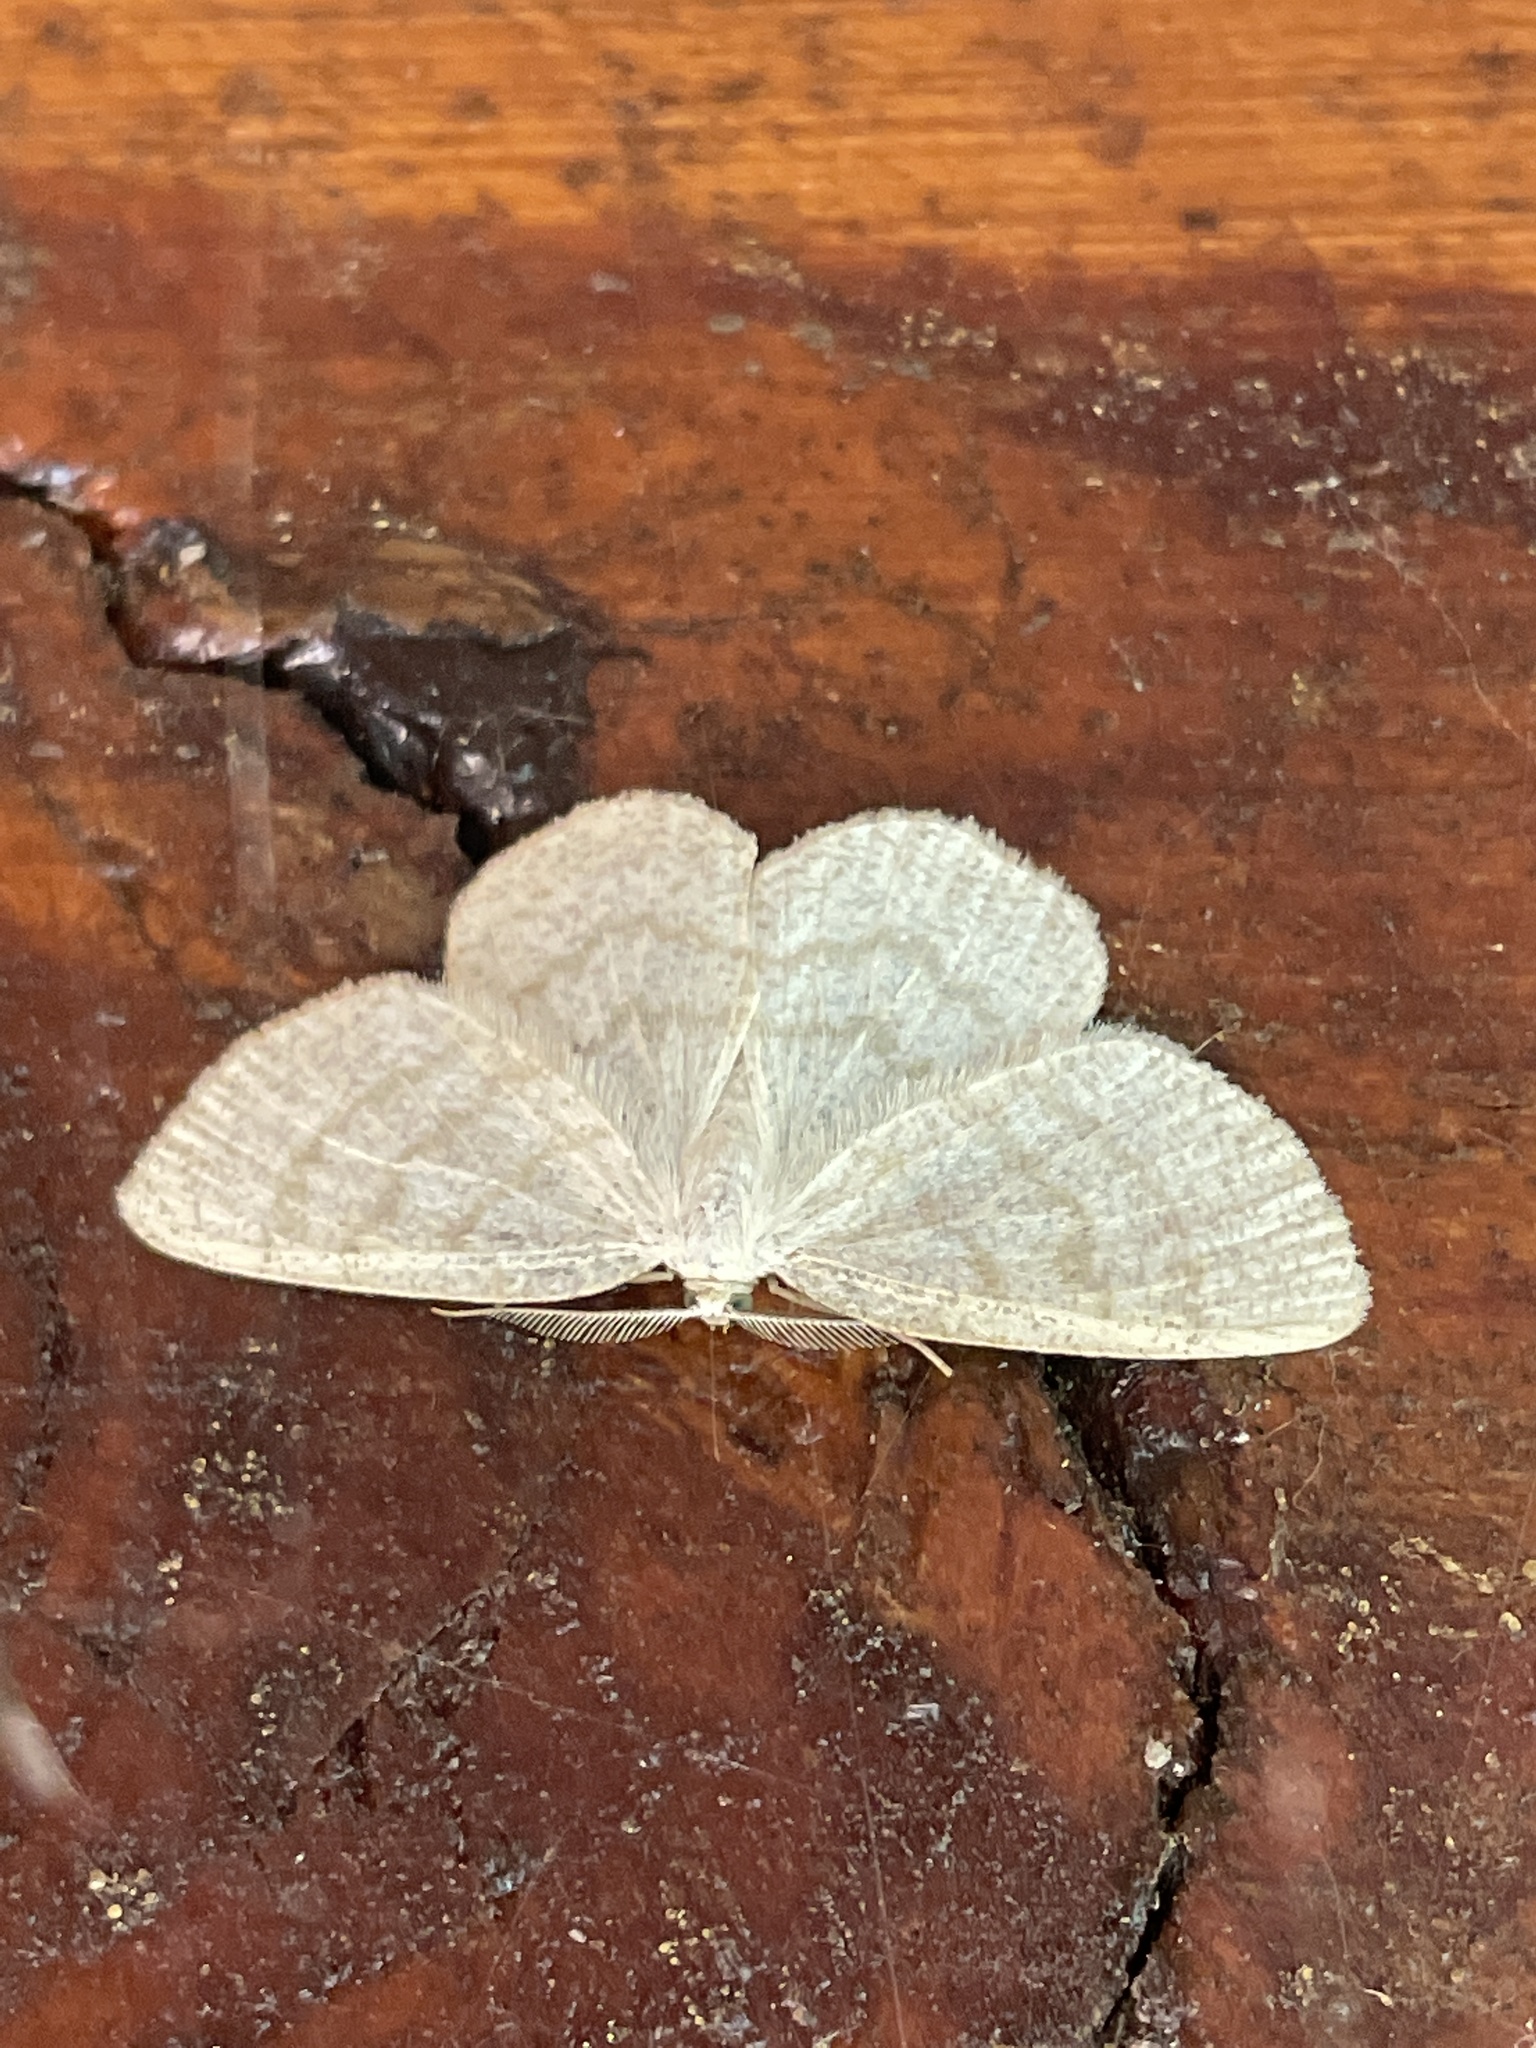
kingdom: Animalia
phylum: Arthropoda
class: Insecta
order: Lepidoptera
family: Geometridae
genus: Cabera
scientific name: Cabera exanthemata
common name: Common wave
